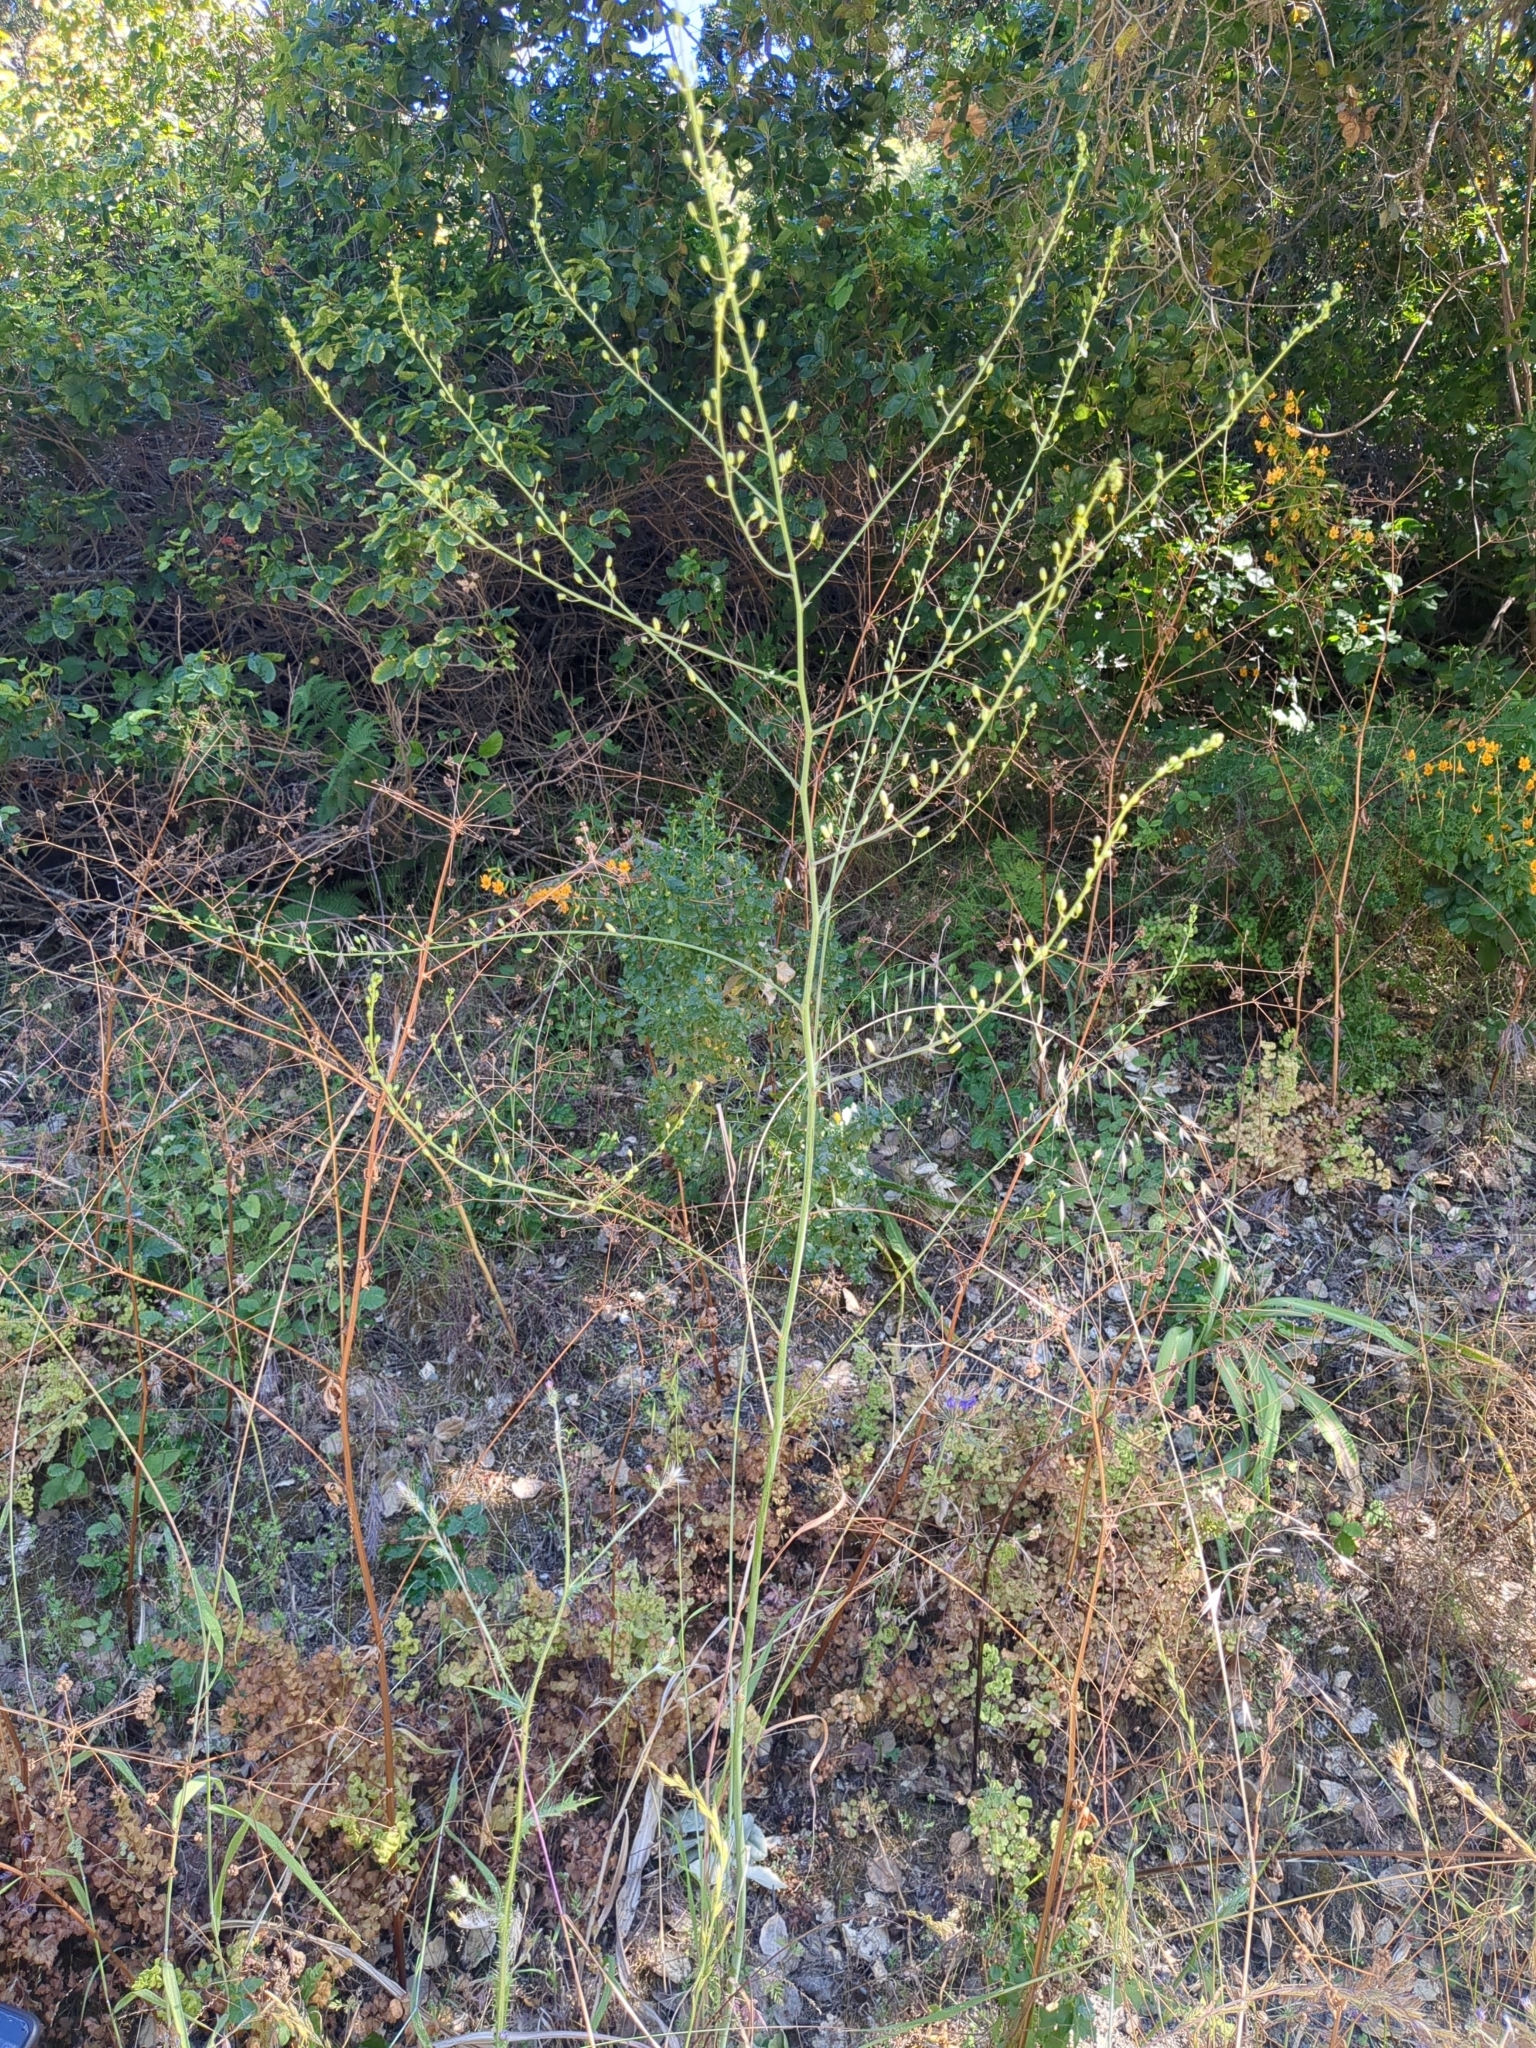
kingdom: Plantae
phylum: Tracheophyta
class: Liliopsida
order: Asparagales
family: Asparagaceae
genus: Chlorogalum
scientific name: Chlorogalum pomeridianum
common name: Amole
